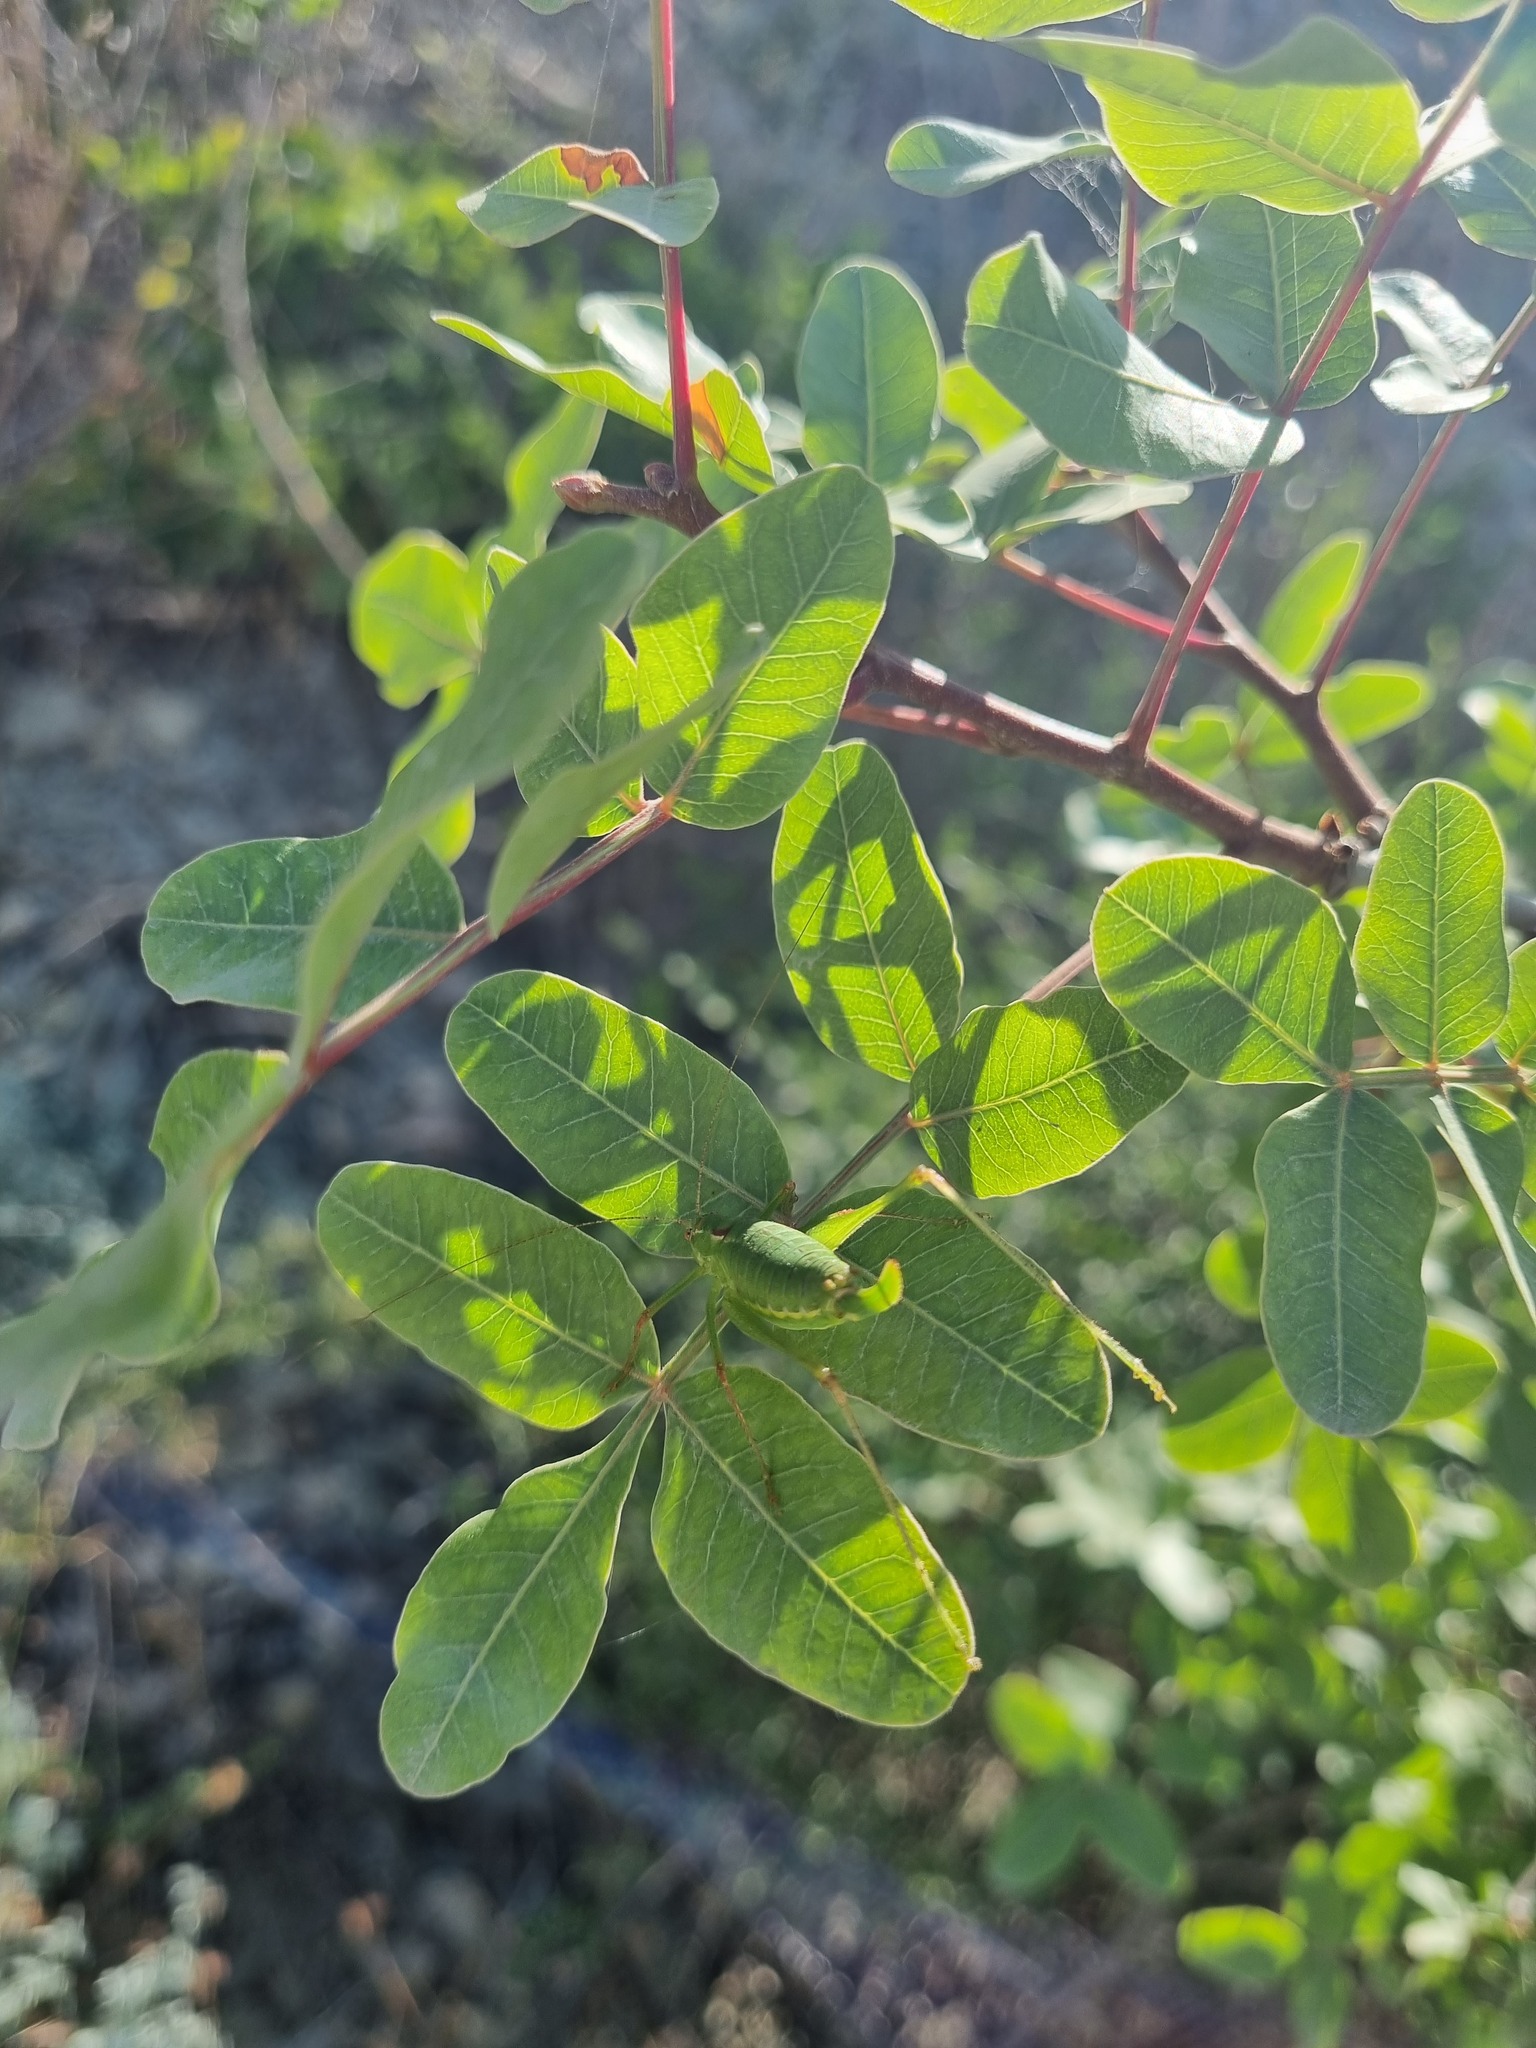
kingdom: Plantae
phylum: Tracheophyta
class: Magnoliopsida
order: Sapindales
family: Anacardiaceae
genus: Pistacia
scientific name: Pistacia atlantica
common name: Mt. atlas mastic tree
